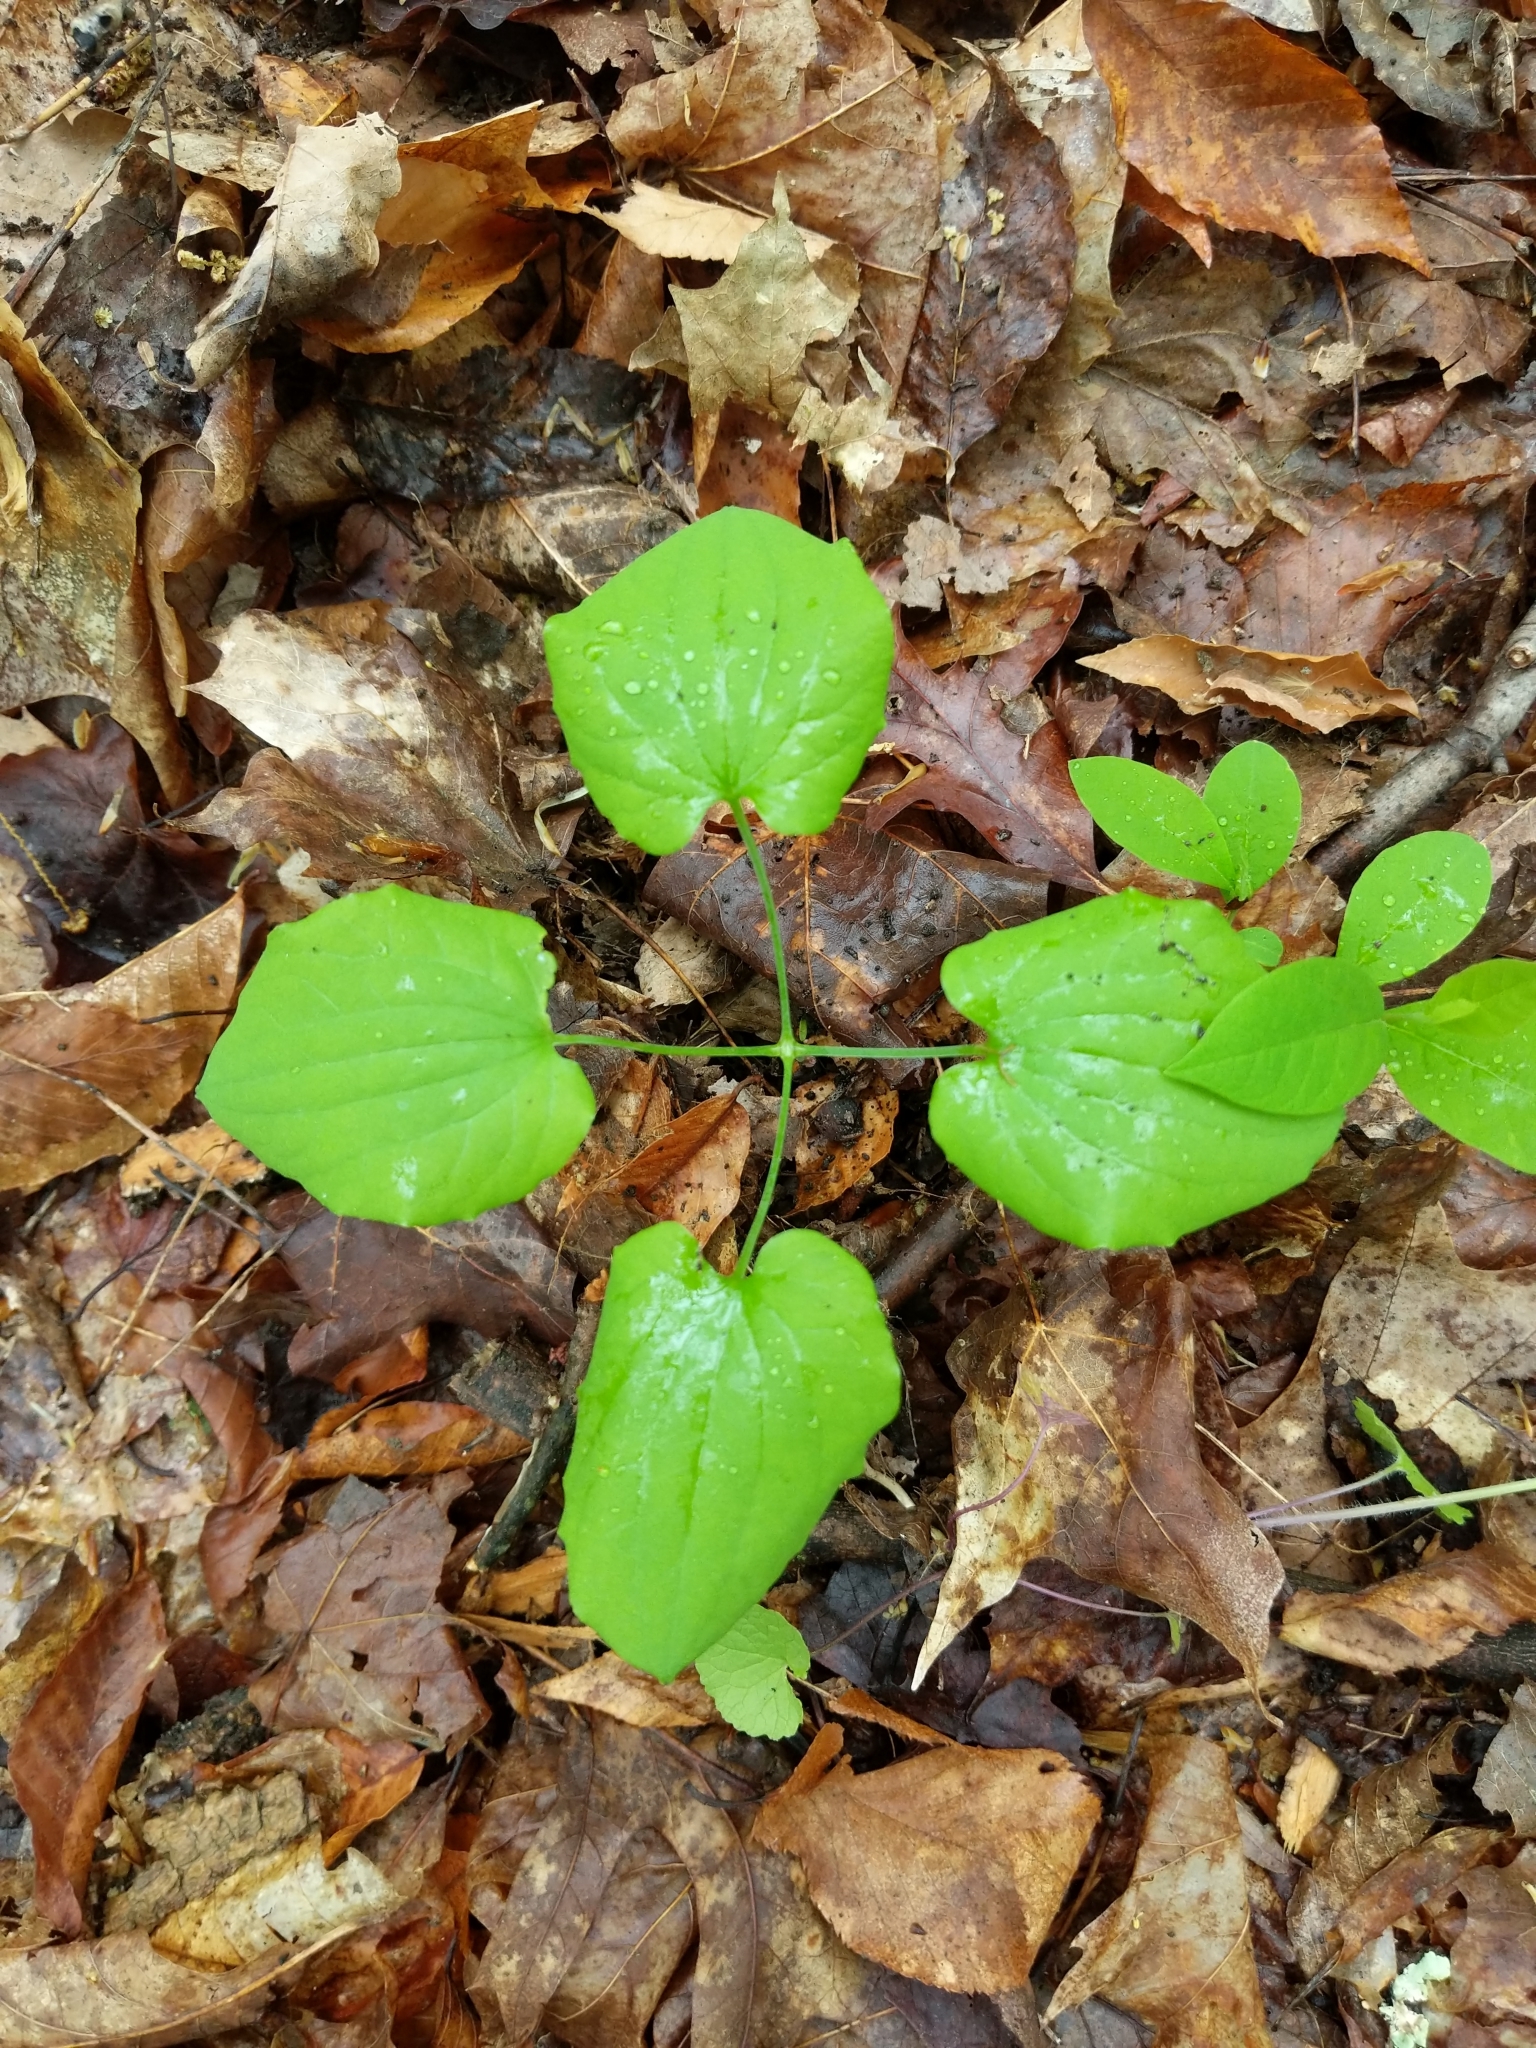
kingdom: Plantae
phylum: Tracheophyta
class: Liliopsida
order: Dioscoreales
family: Dioscoreaceae
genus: Dioscorea
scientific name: Dioscorea villosa
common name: Wild yam
